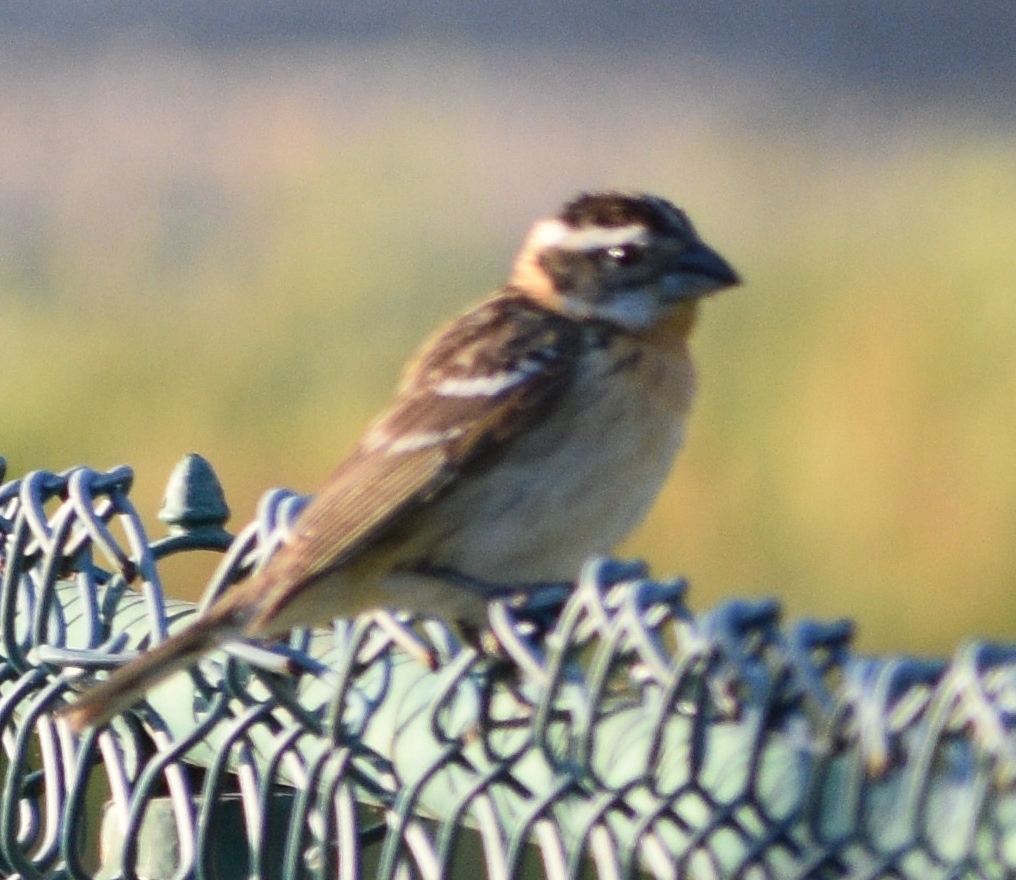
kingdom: Animalia
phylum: Chordata
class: Aves
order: Passeriformes
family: Cardinalidae
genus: Pheucticus
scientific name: Pheucticus melanocephalus
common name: Black-headed grosbeak
